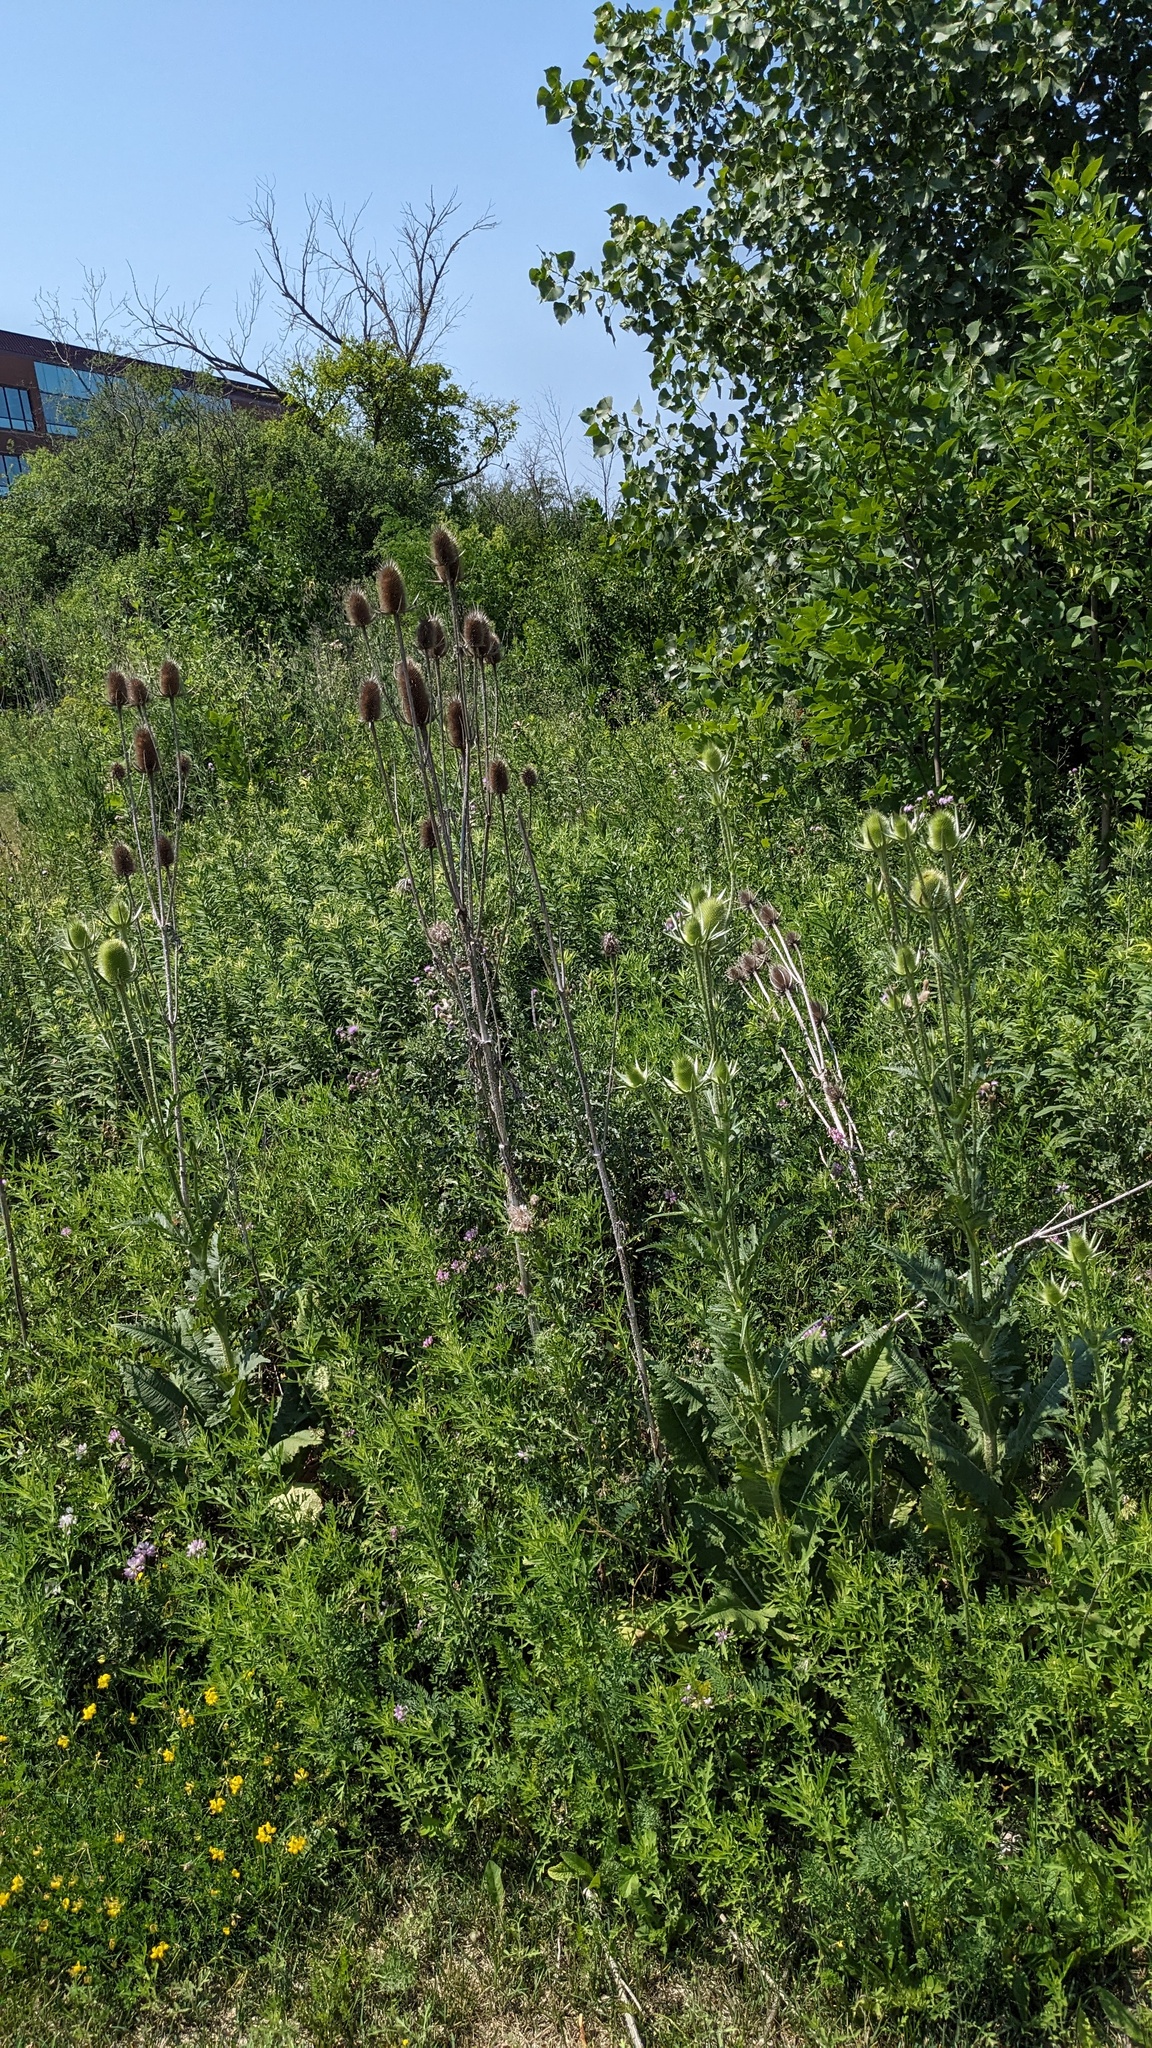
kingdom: Plantae
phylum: Tracheophyta
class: Magnoliopsida
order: Dipsacales
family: Caprifoliaceae
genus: Dipsacus
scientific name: Dipsacus laciniatus
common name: Cut-leaved teasel
